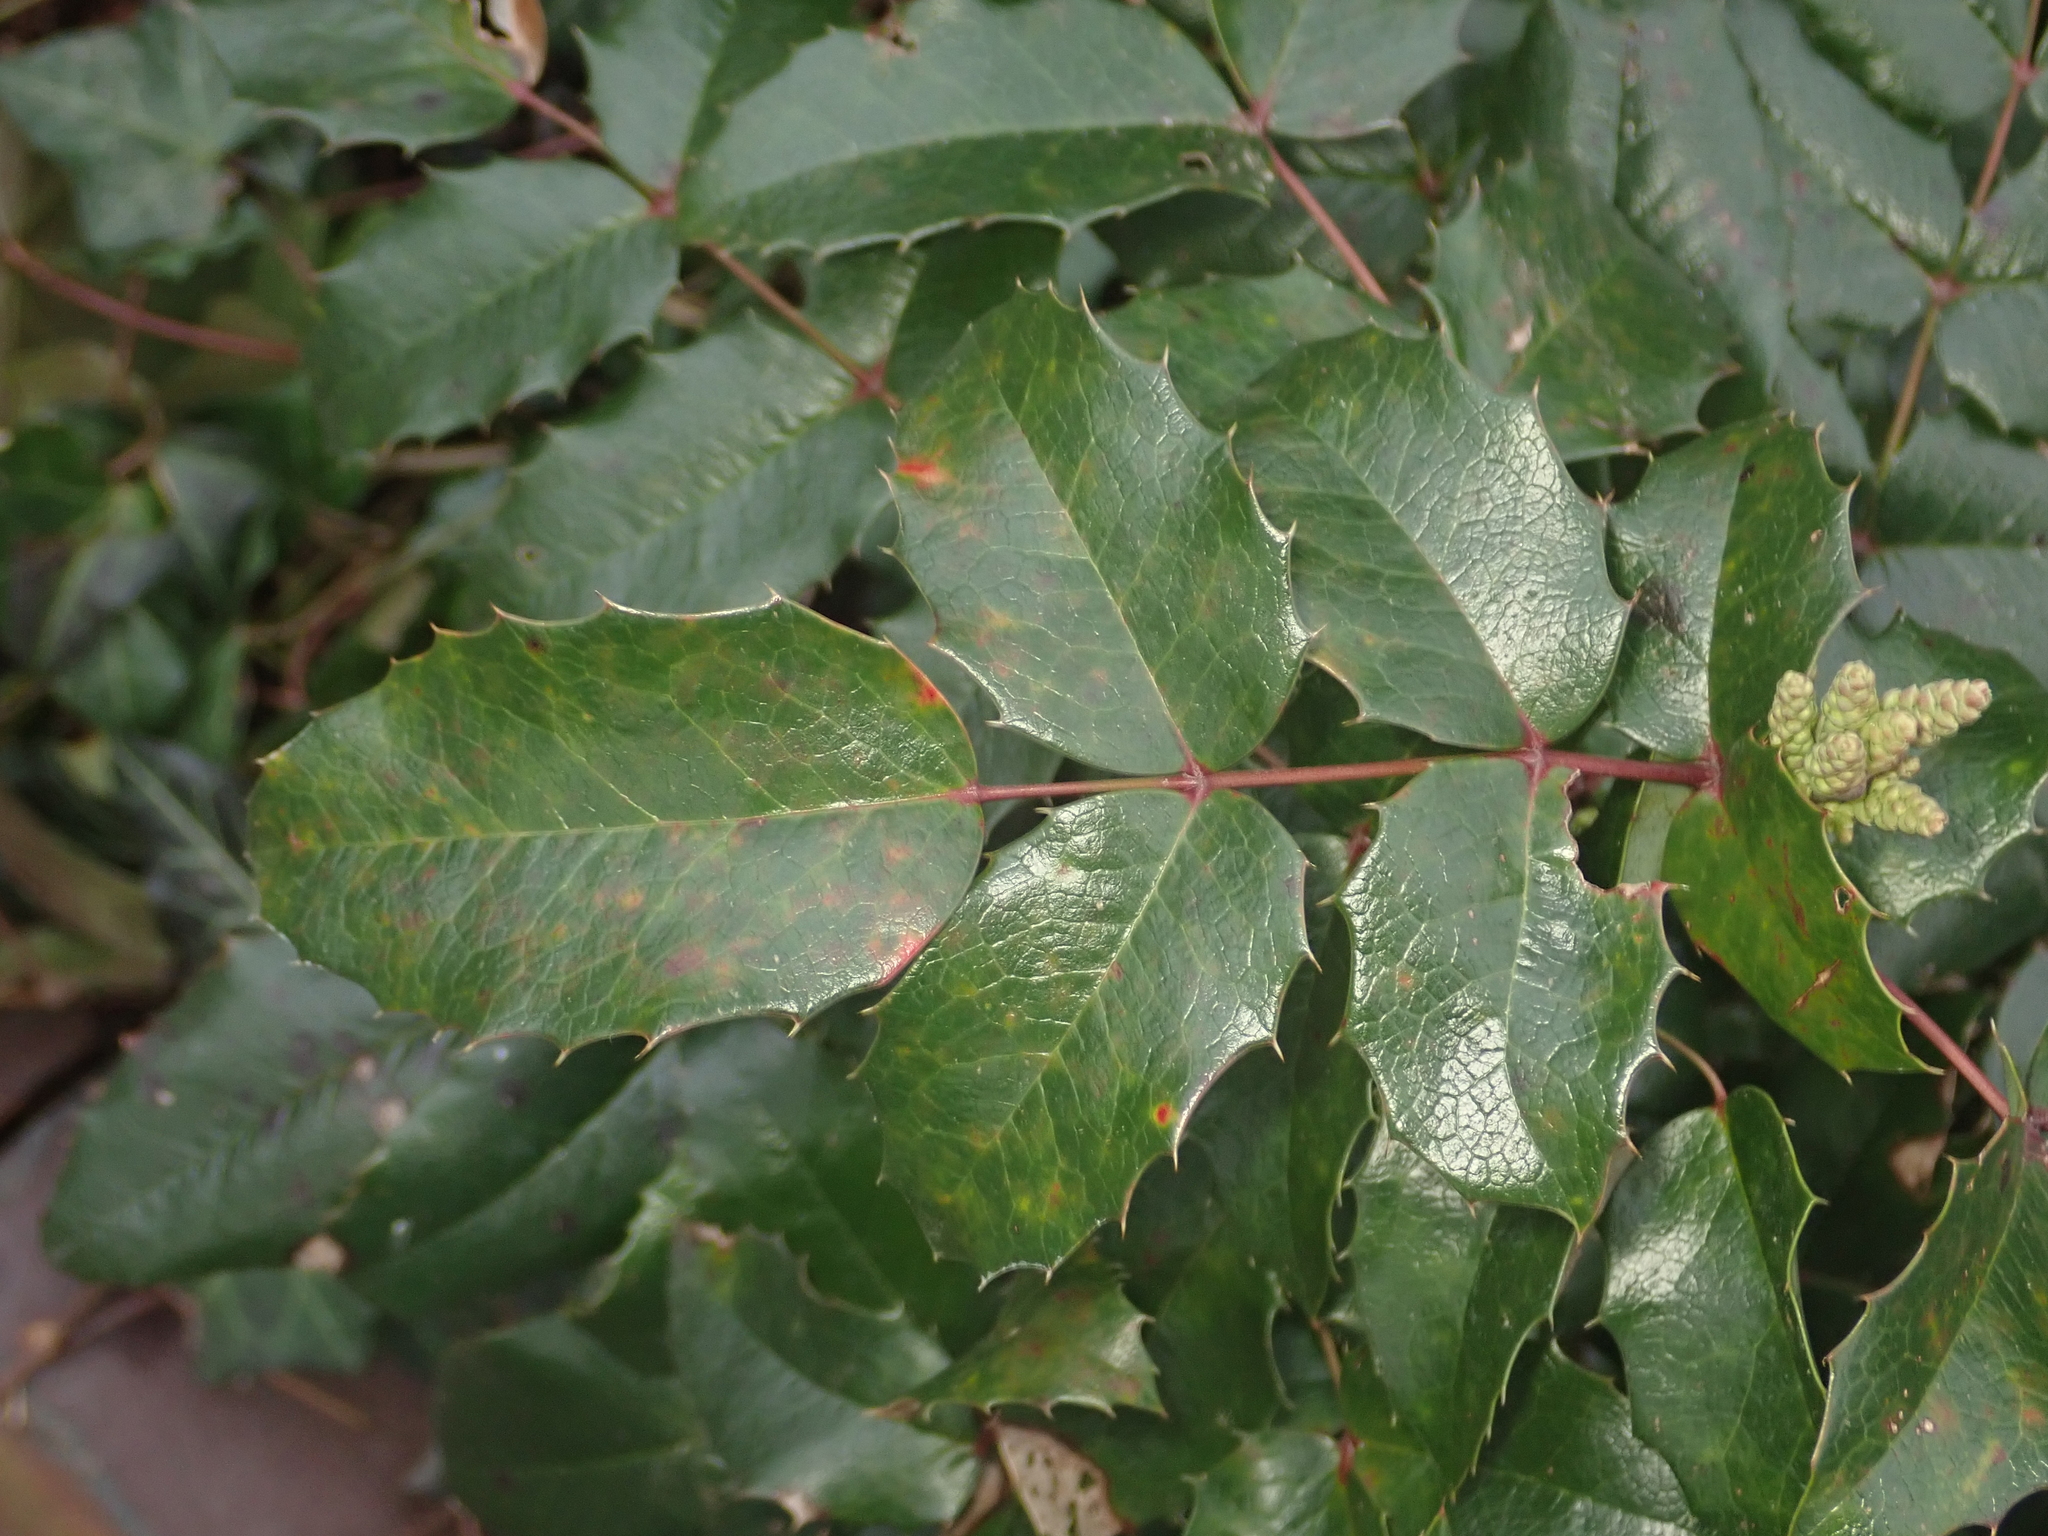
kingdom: Plantae
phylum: Tracheophyta
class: Magnoliopsida
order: Ranunculales
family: Berberidaceae
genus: Mahonia
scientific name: Mahonia aquifolium
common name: Oregon-grape
